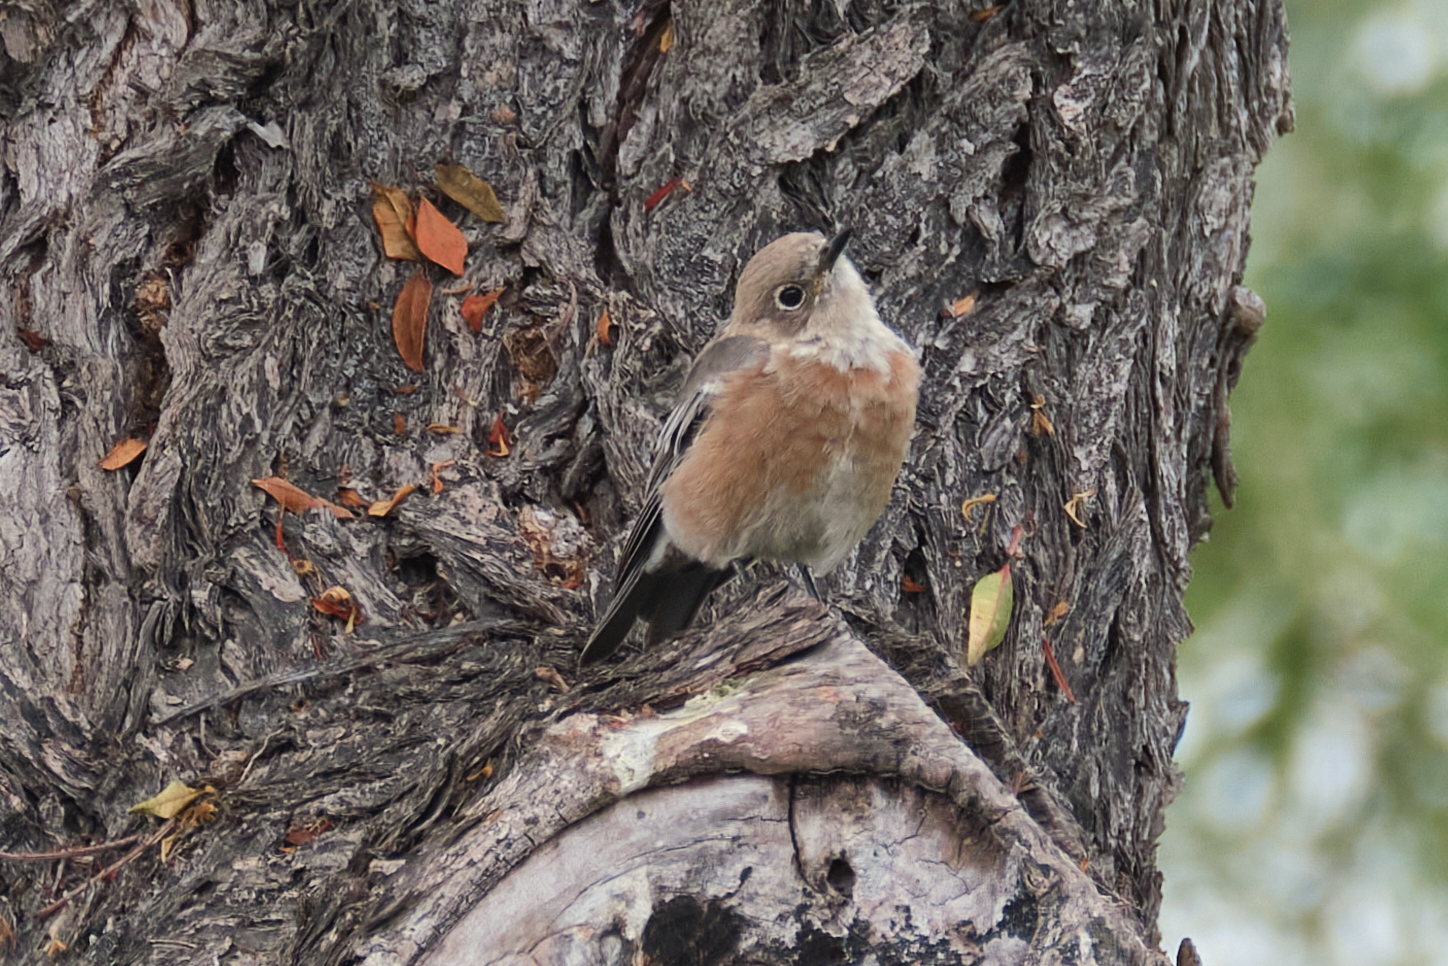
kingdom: Animalia
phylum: Chordata
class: Aves
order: Passeriformes
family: Turdidae
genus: Sialia
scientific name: Sialia mexicana
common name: Western bluebird
